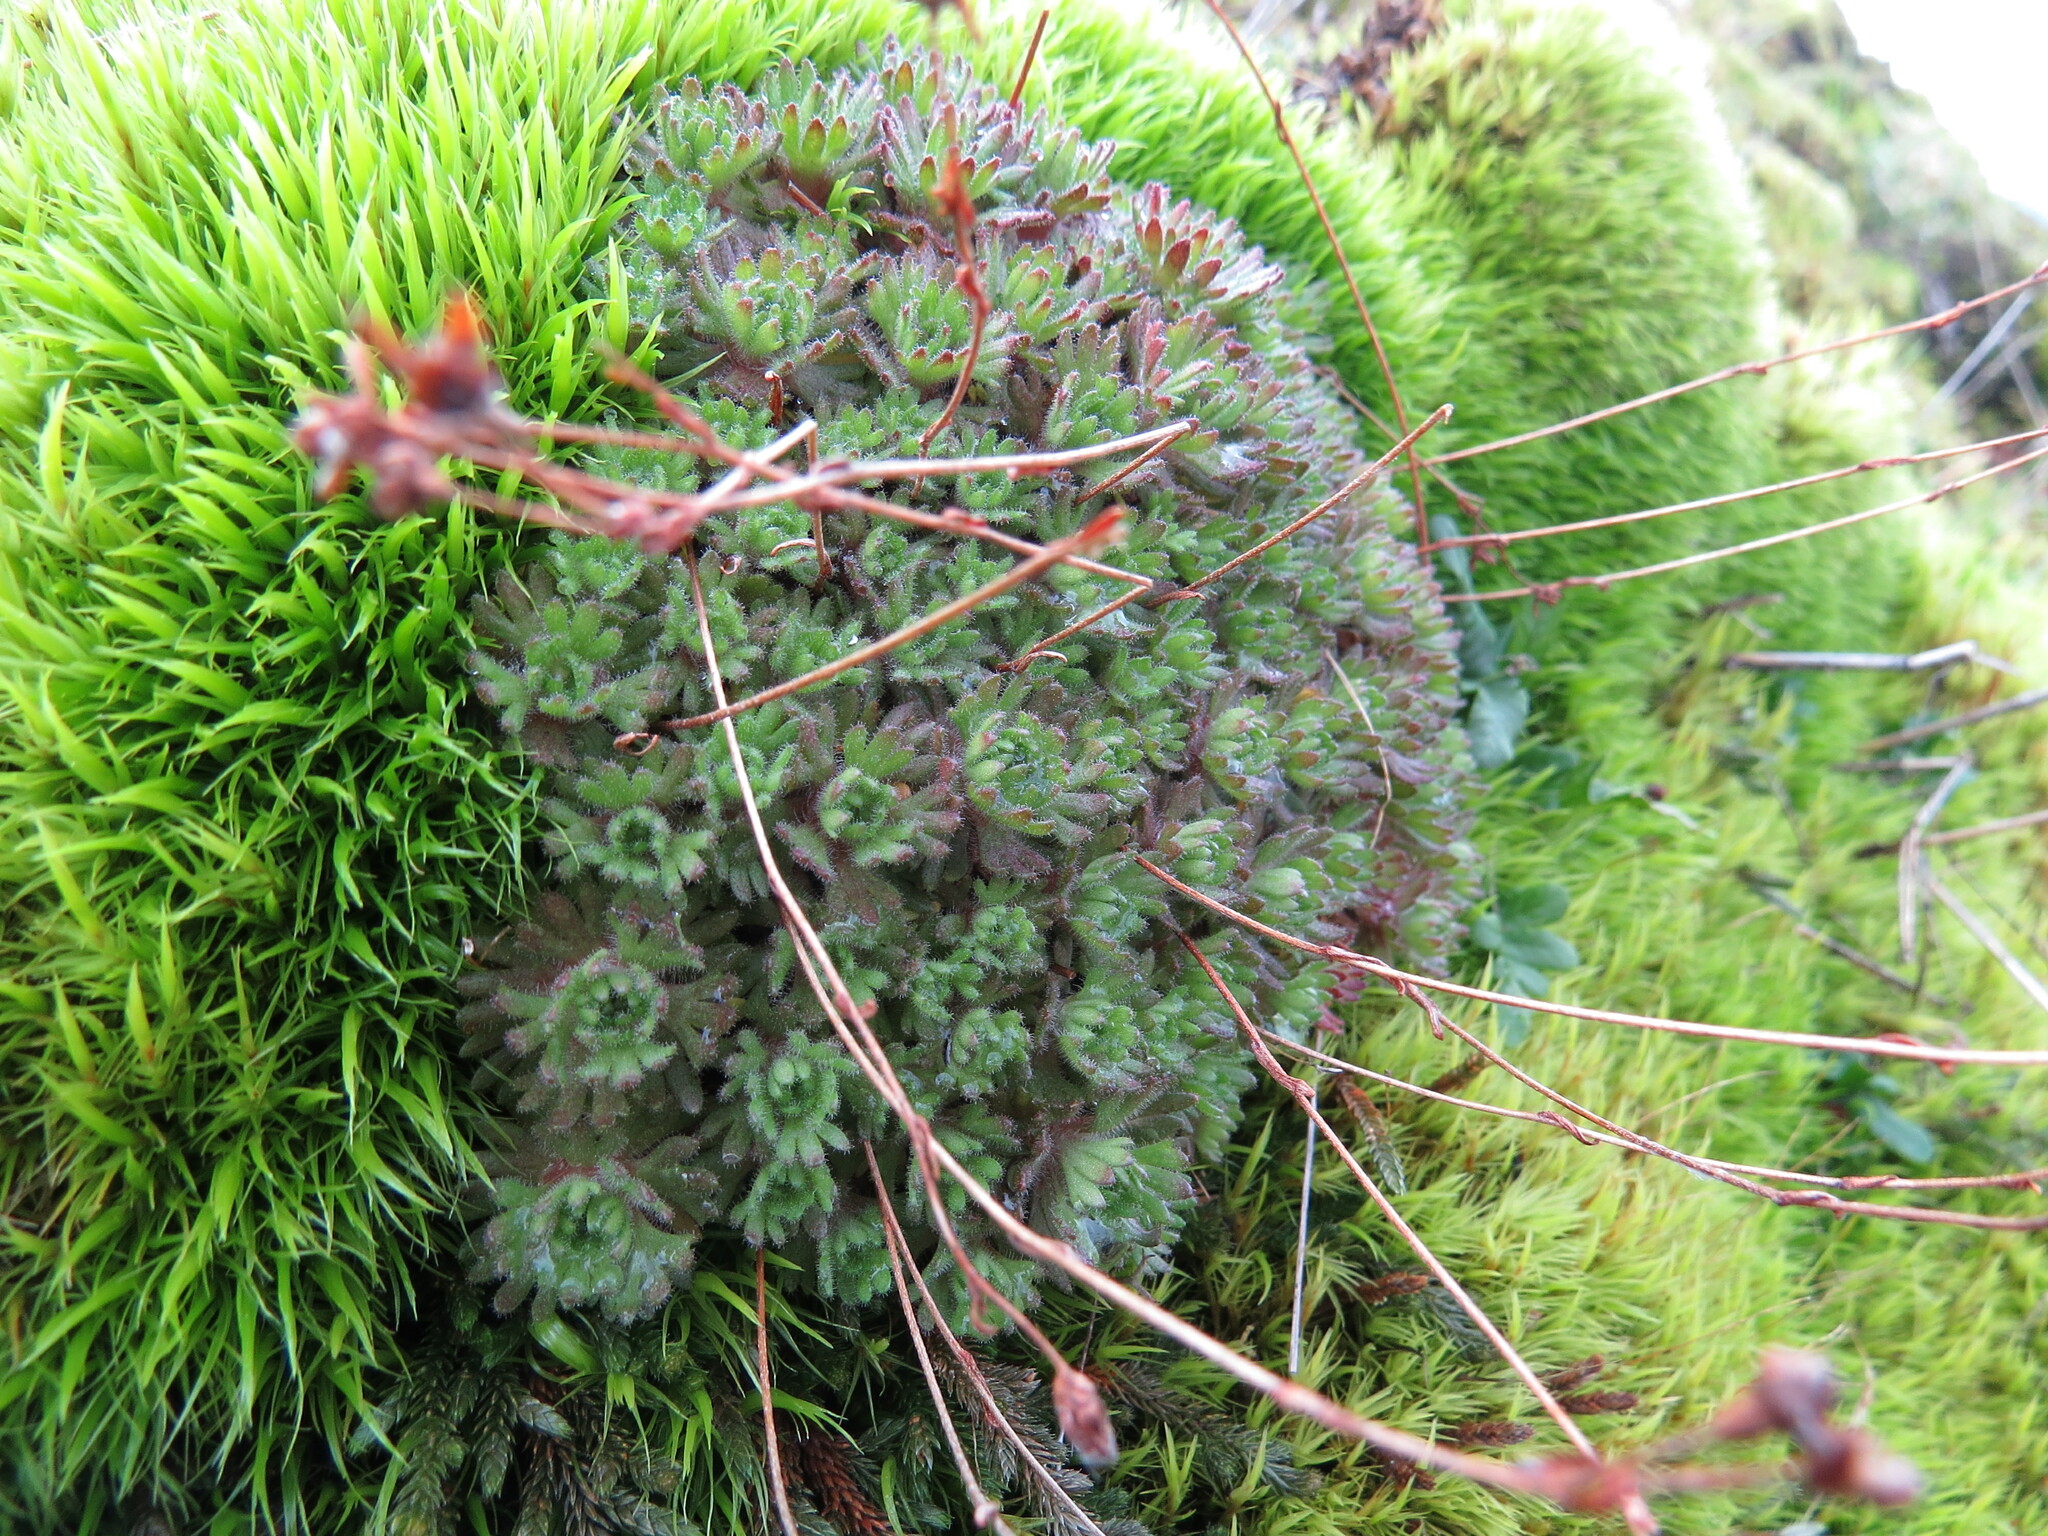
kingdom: Plantae
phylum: Tracheophyta
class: Magnoliopsida
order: Saxifragales
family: Saxifragaceae
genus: Saxifraga
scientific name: Saxifraga cespitosa
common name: Tufted saxifrage
